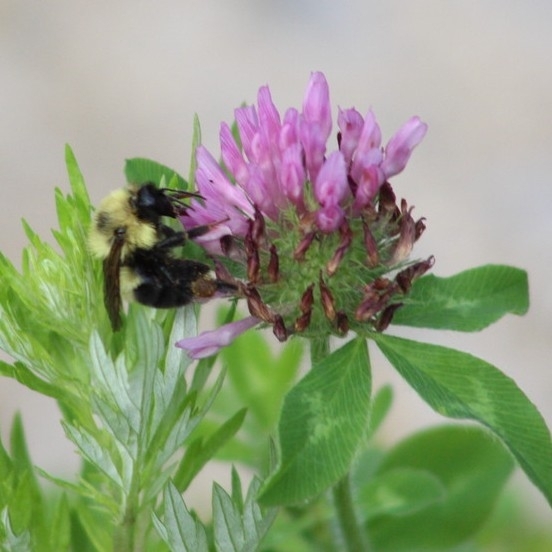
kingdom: Animalia
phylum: Arthropoda
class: Insecta
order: Hymenoptera
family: Apidae
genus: Bombus
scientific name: Bombus bimaculatus
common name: Two-spotted bumble bee
